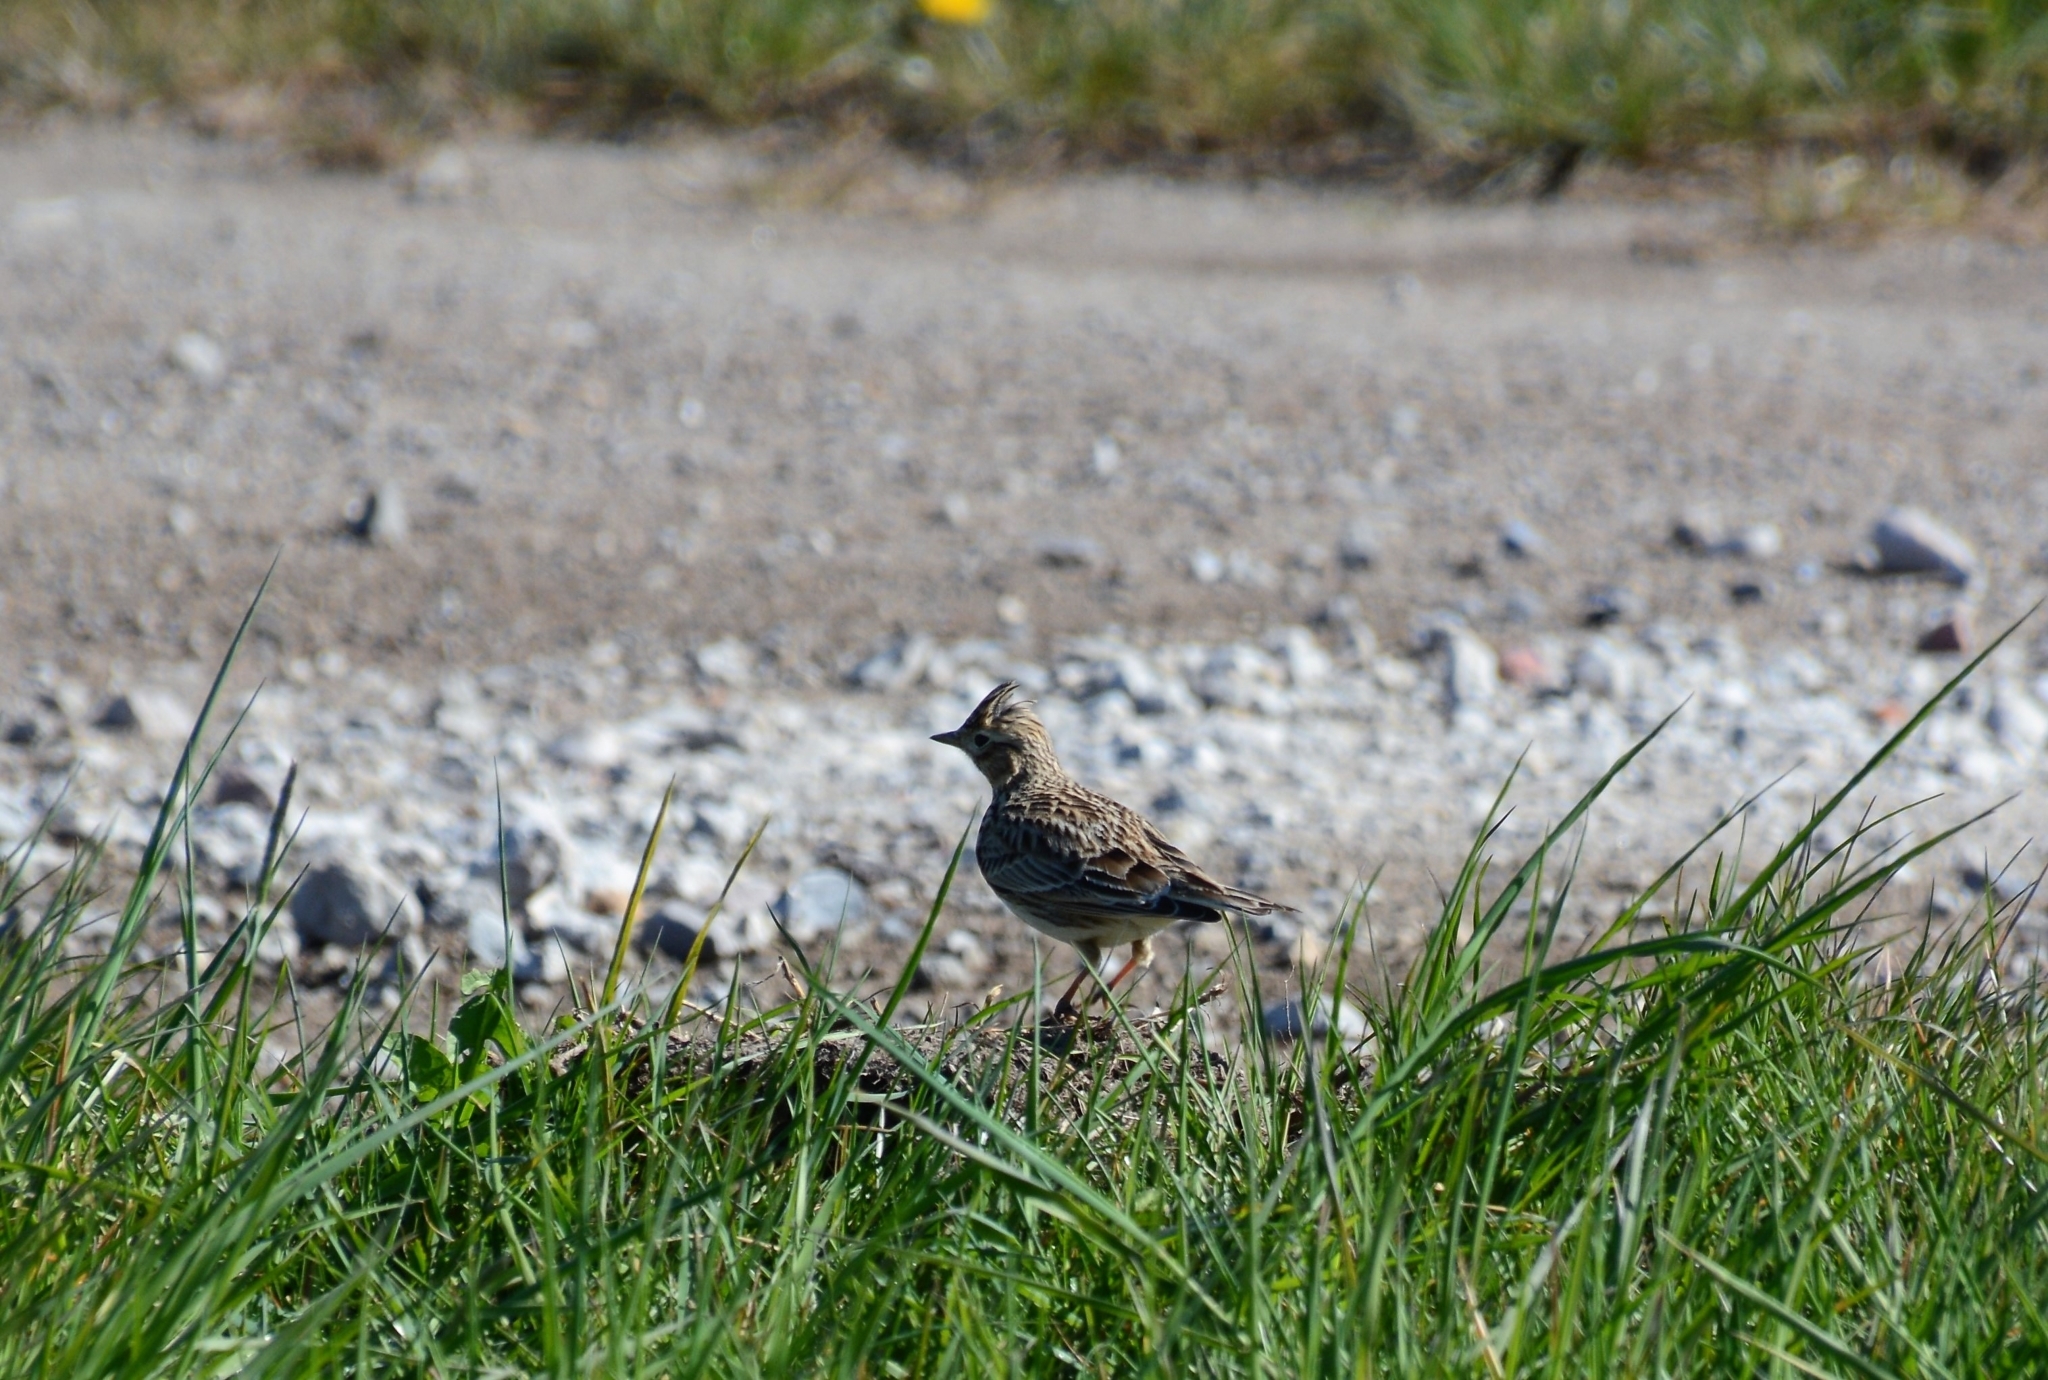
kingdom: Animalia
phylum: Chordata
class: Aves
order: Passeriformes
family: Alaudidae
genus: Alauda
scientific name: Alauda arvensis
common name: Eurasian skylark
